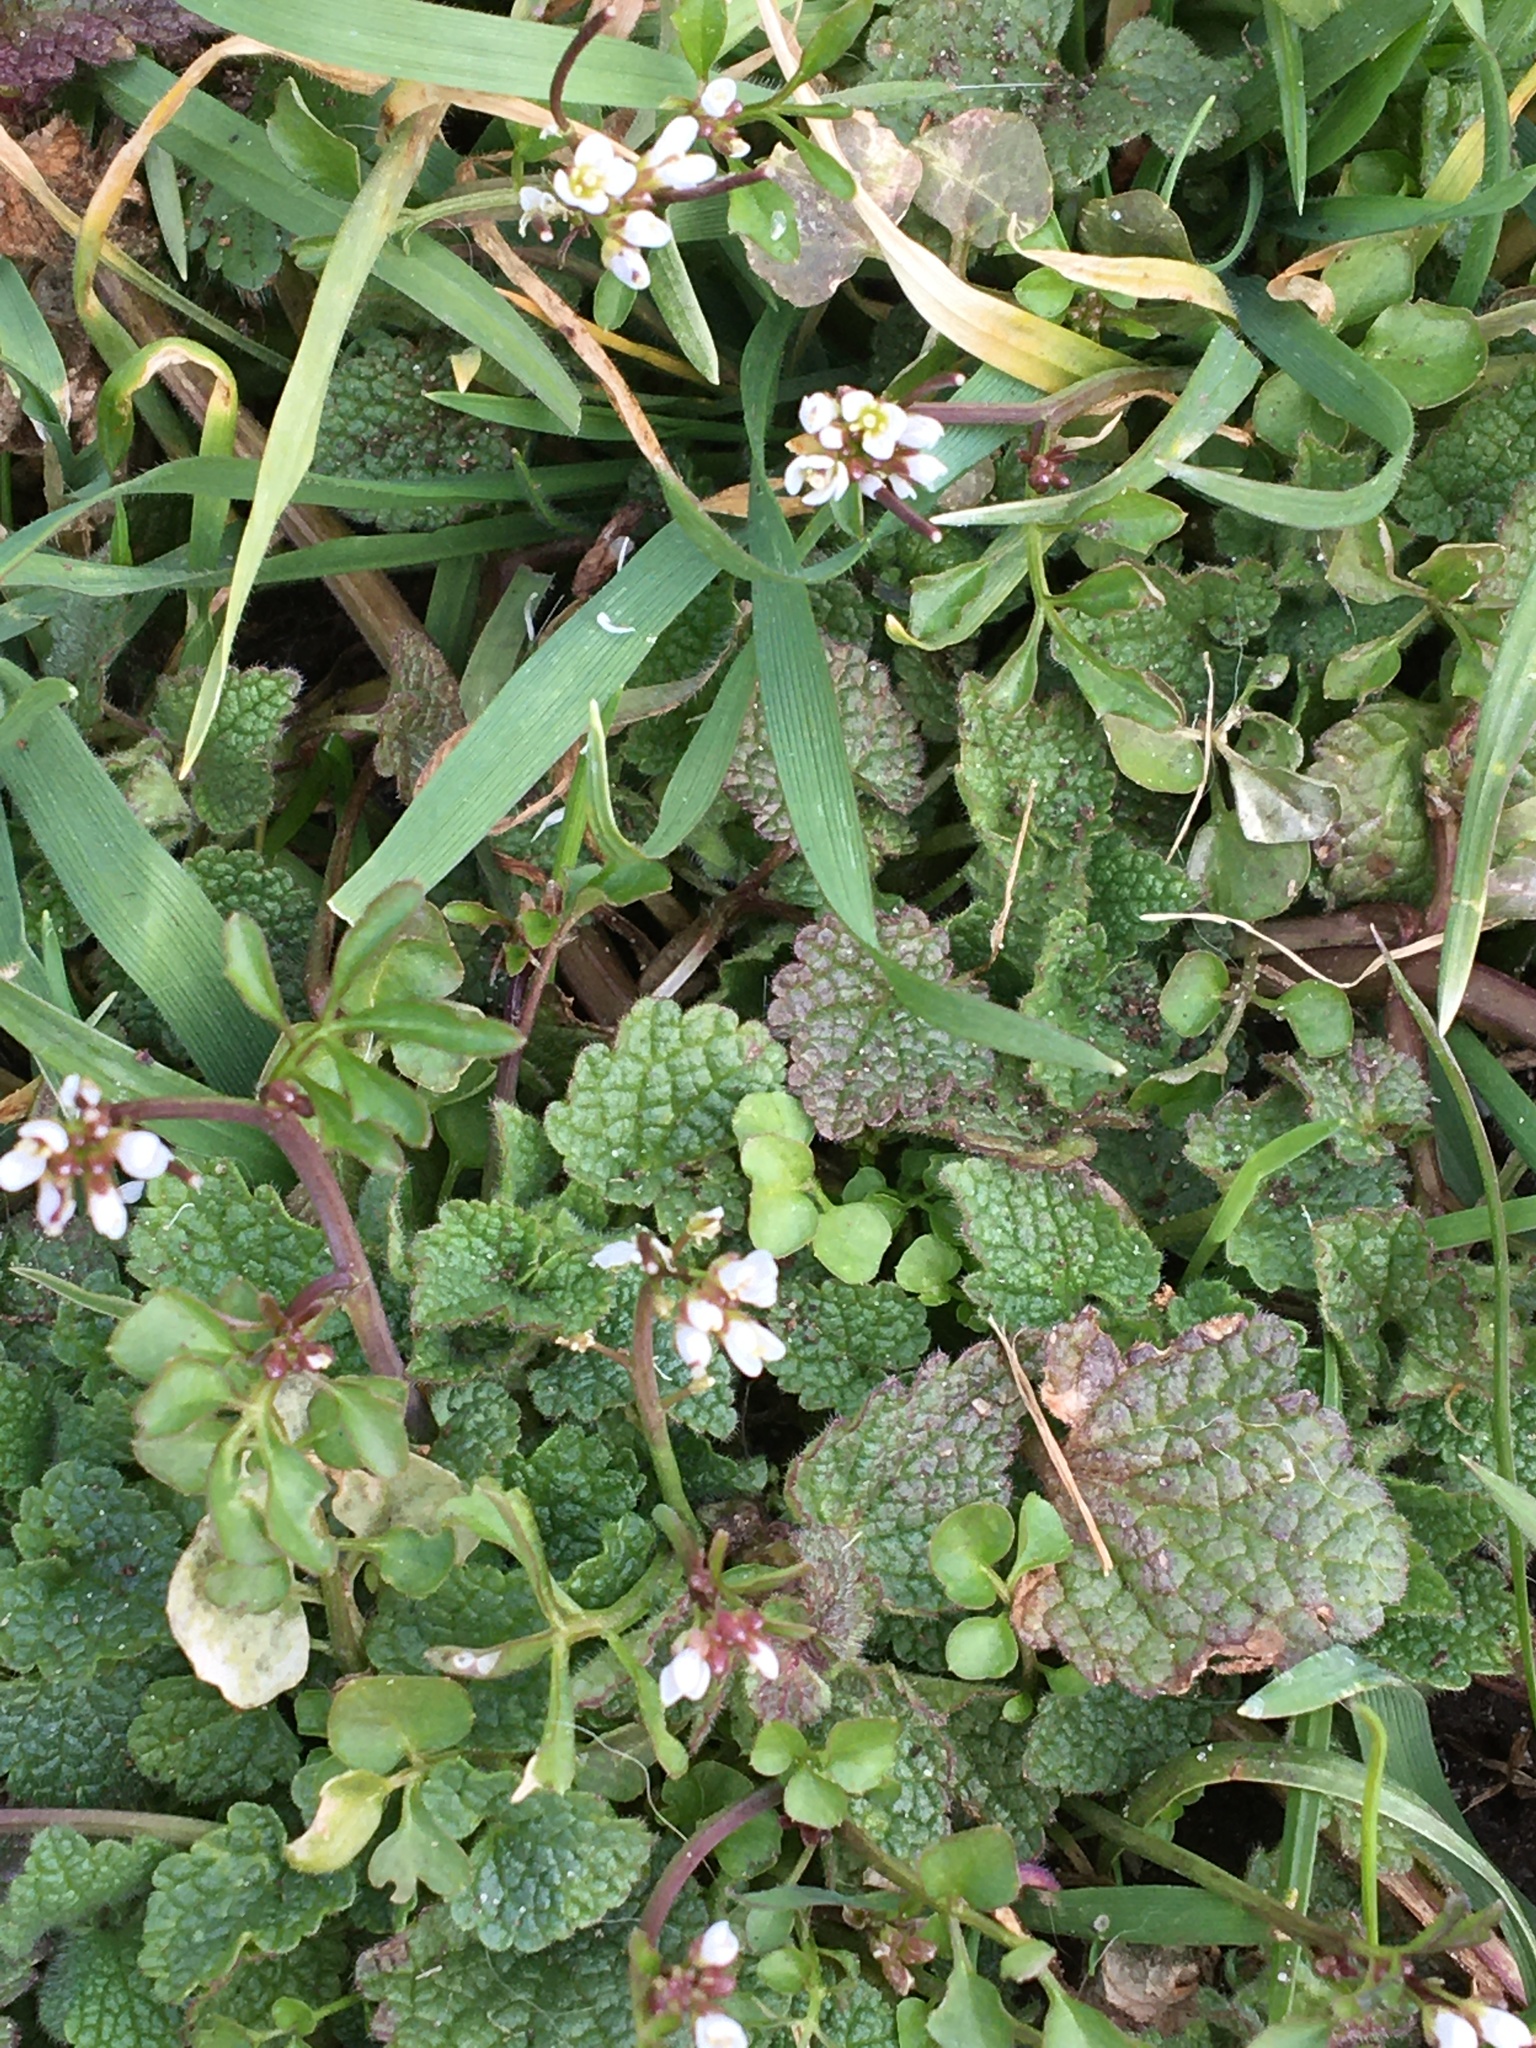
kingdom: Plantae
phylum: Tracheophyta
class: Magnoliopsida
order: Brassicales
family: Brassicaceae
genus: Cardamine
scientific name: Cardamine hirsuta
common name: Hairy bittercress
